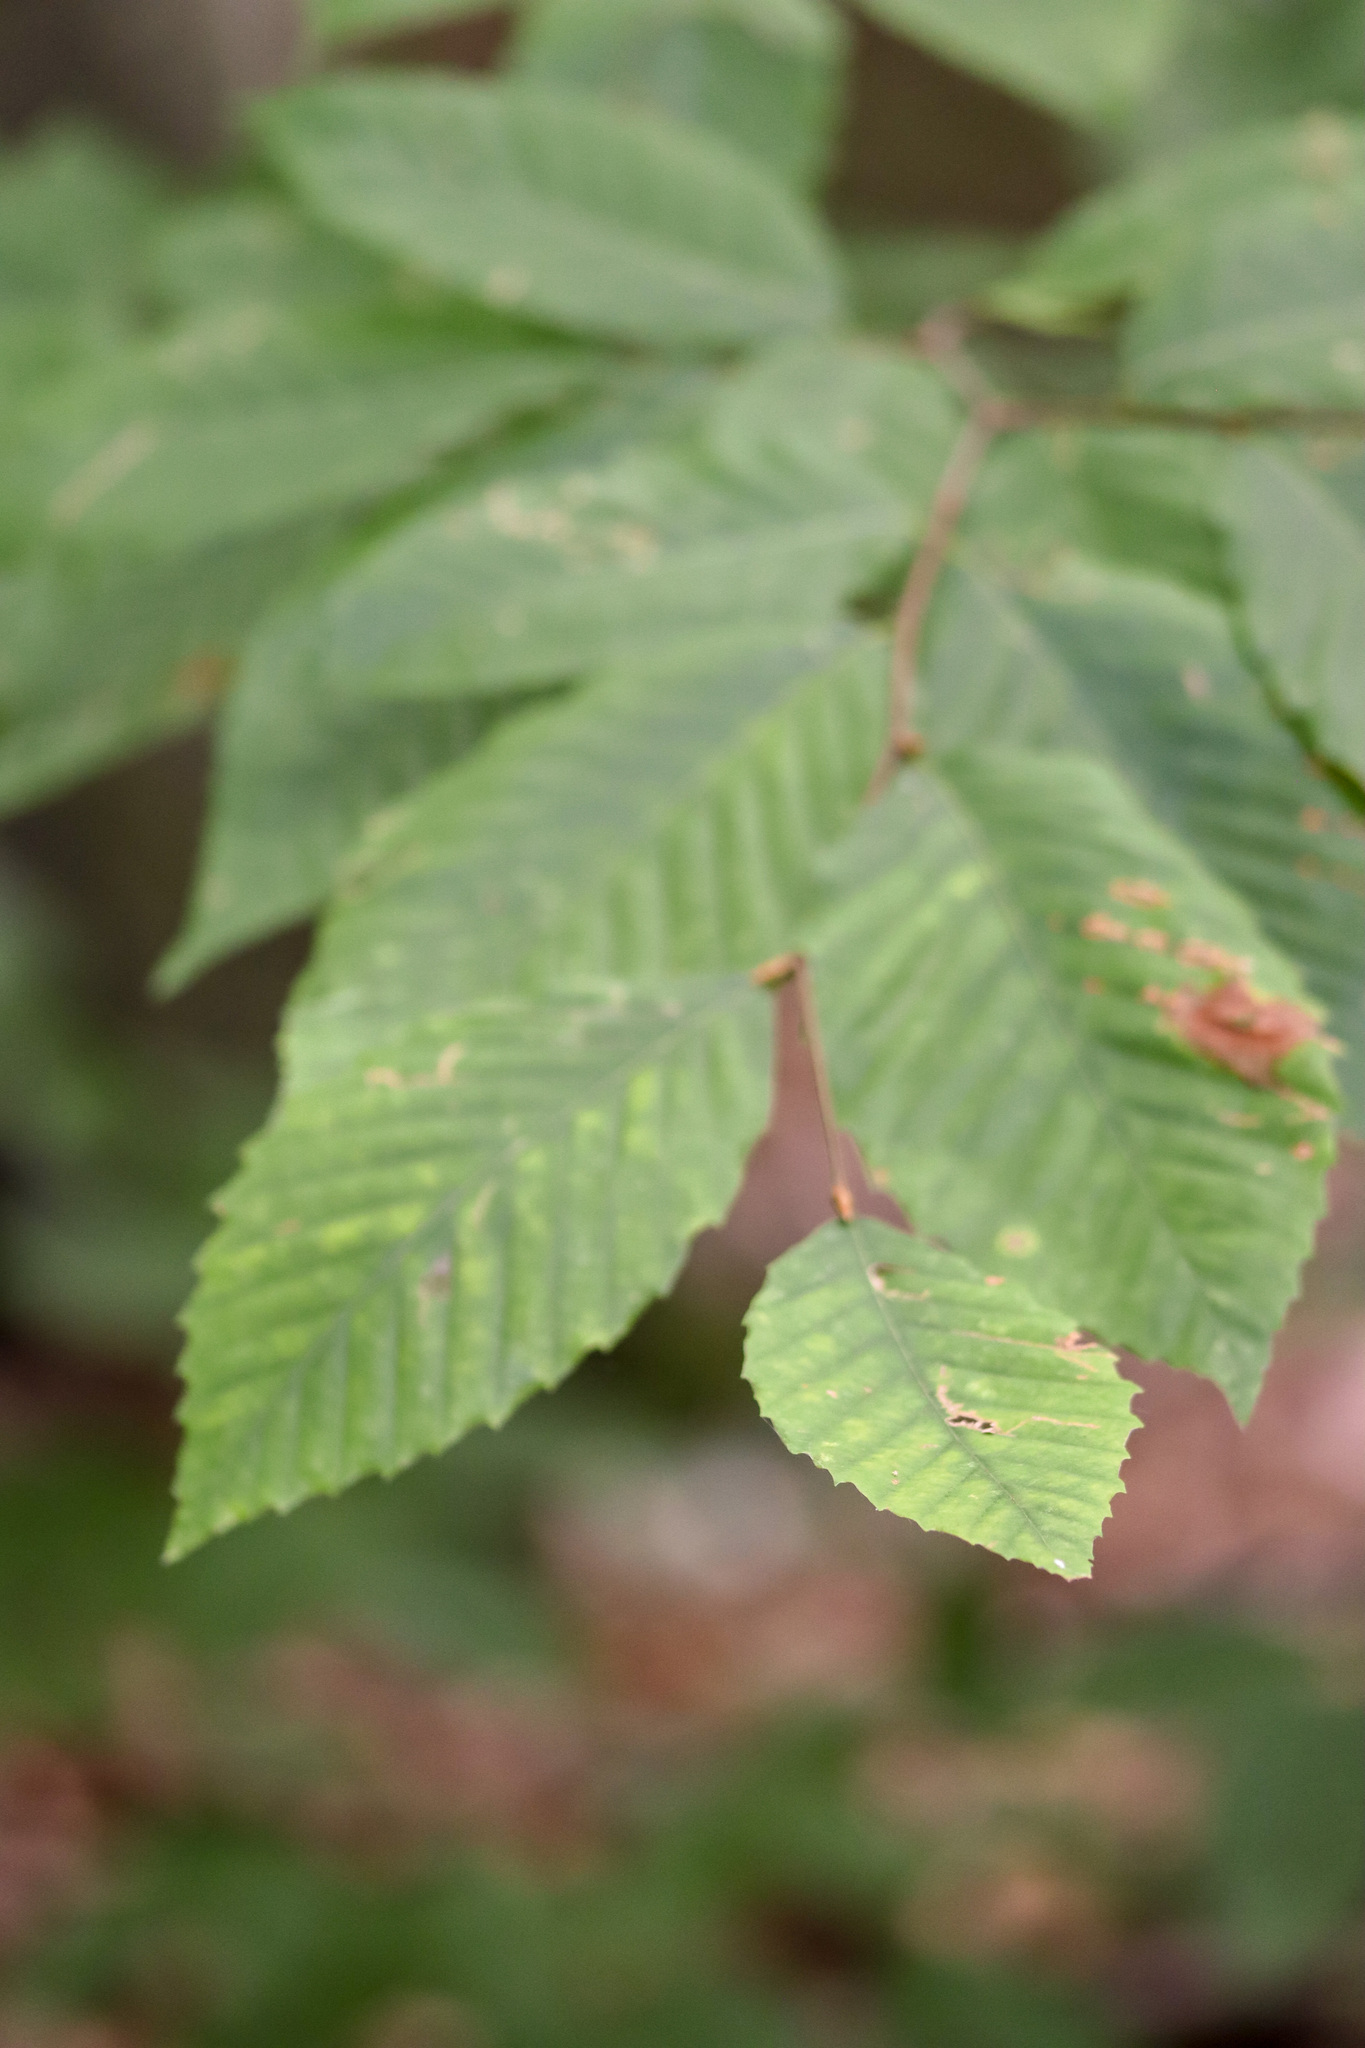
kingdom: Plantae
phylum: Tracheophyta
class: Magnoliopsida
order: Fagales
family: Fagaceae
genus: Fagus
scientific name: Fagus grandifolia
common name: American beech
